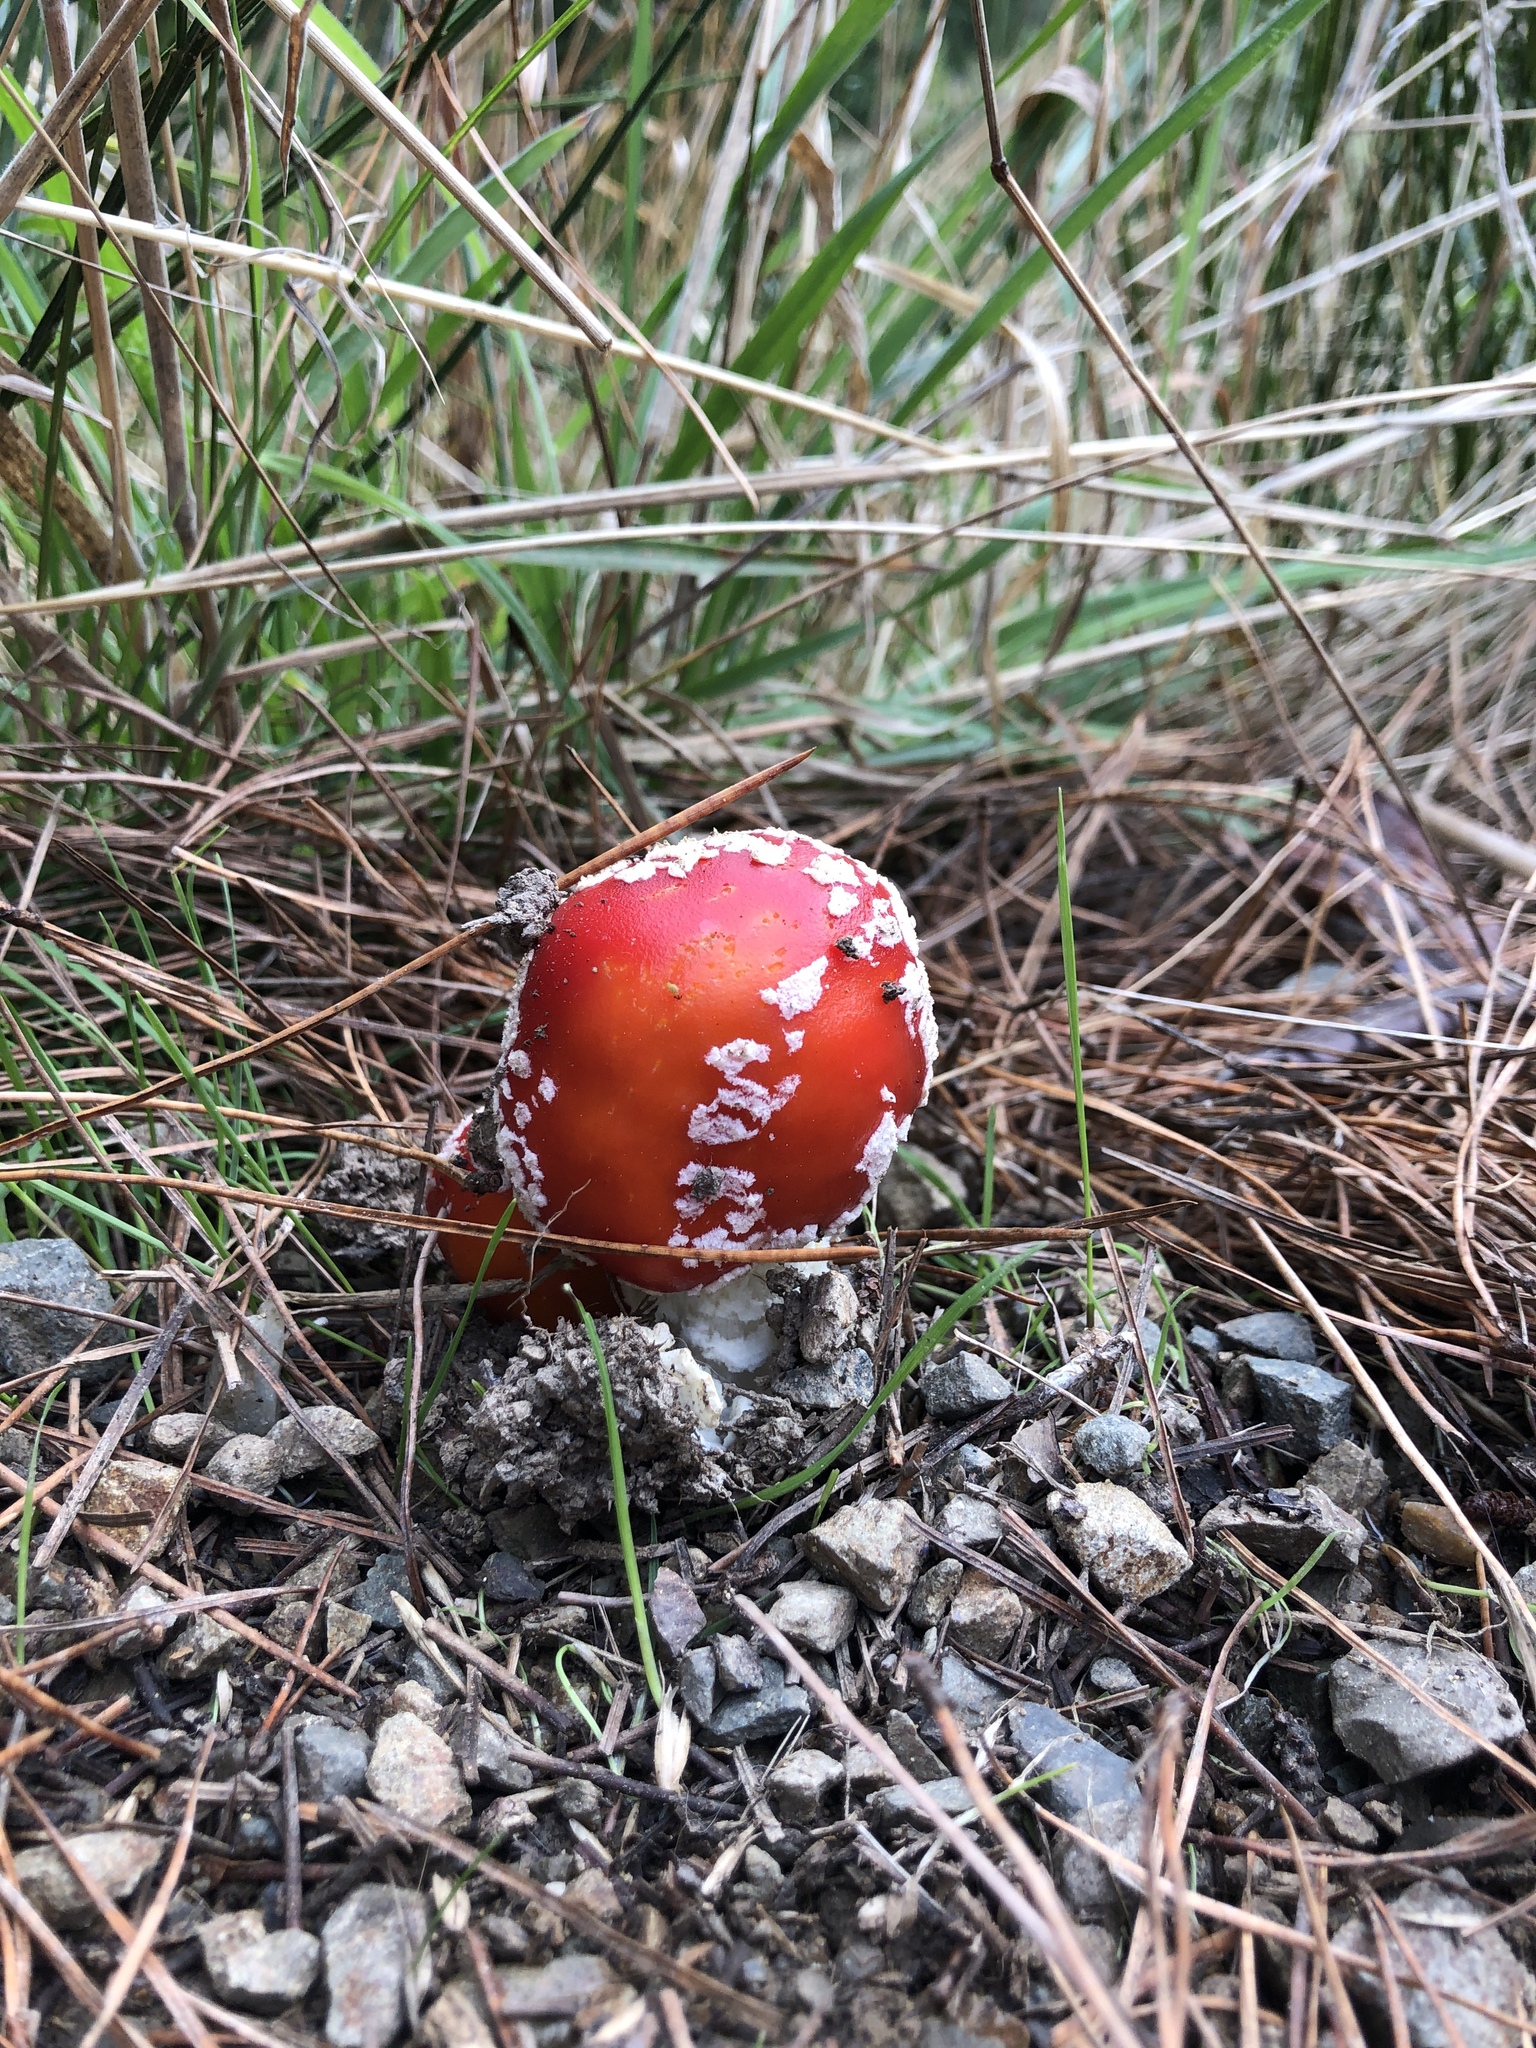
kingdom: Fungi
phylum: Basidiomycota
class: Agaricomycetes
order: Agaricales
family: Amanitaceae
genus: Amanita
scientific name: Amanita muscaria
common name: Fly agaric
